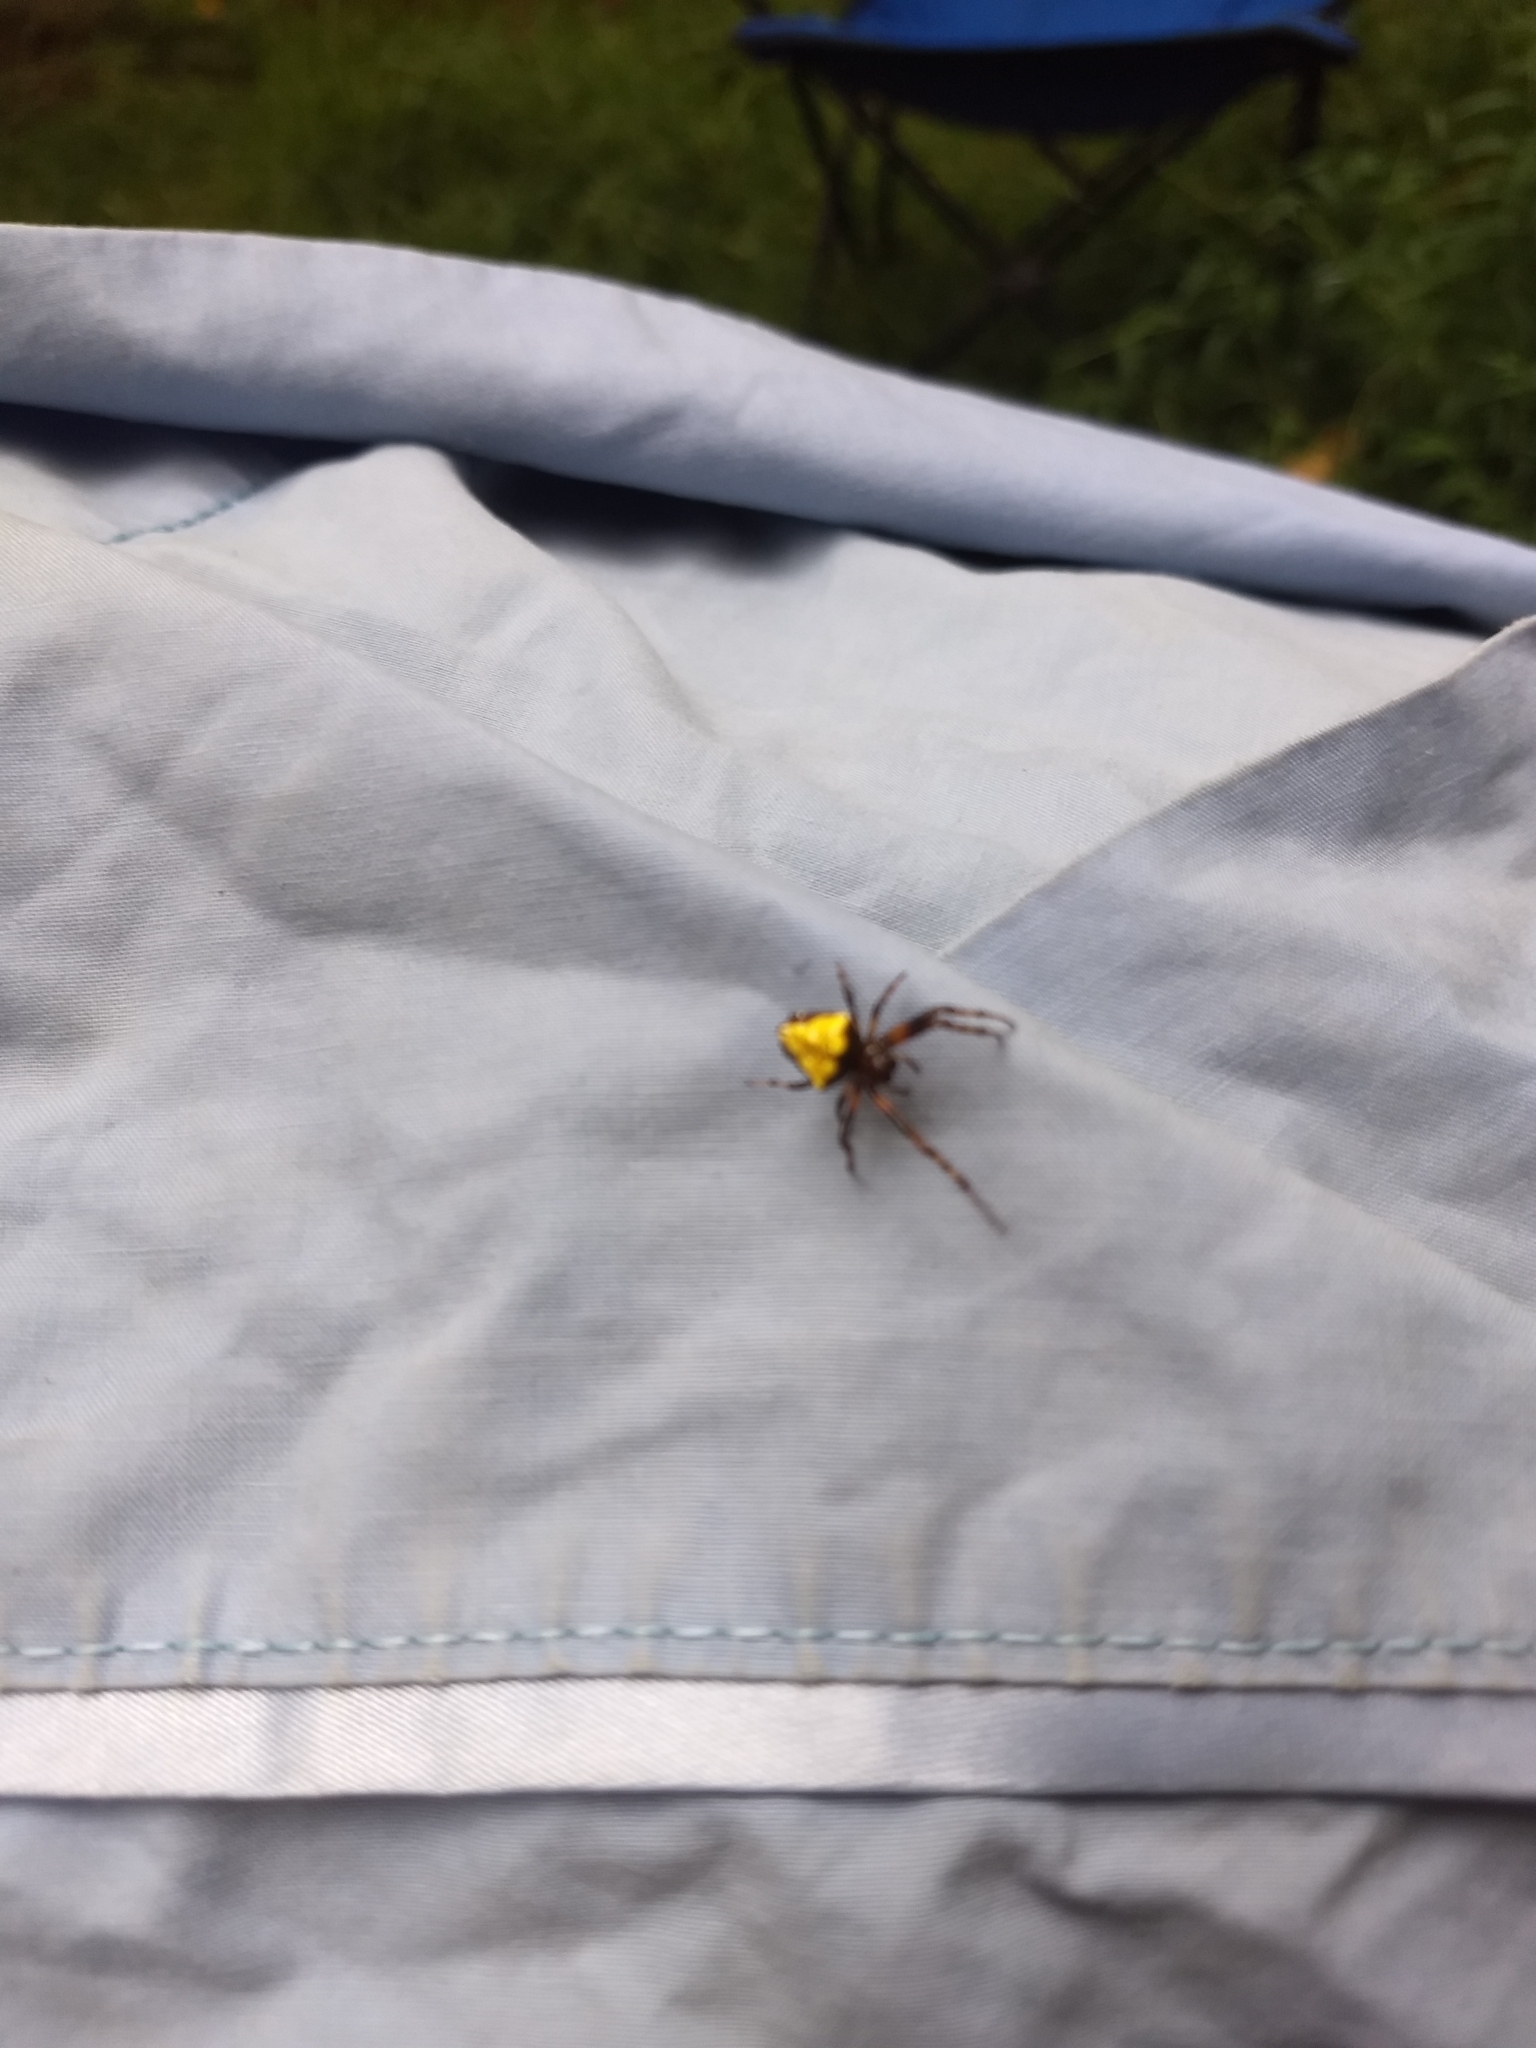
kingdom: Animalia
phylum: Arthropoda
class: Arachnida
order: Araneae
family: Araneidae
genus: Verrucosa
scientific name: Verrucosa arenata
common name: Orb weavers
